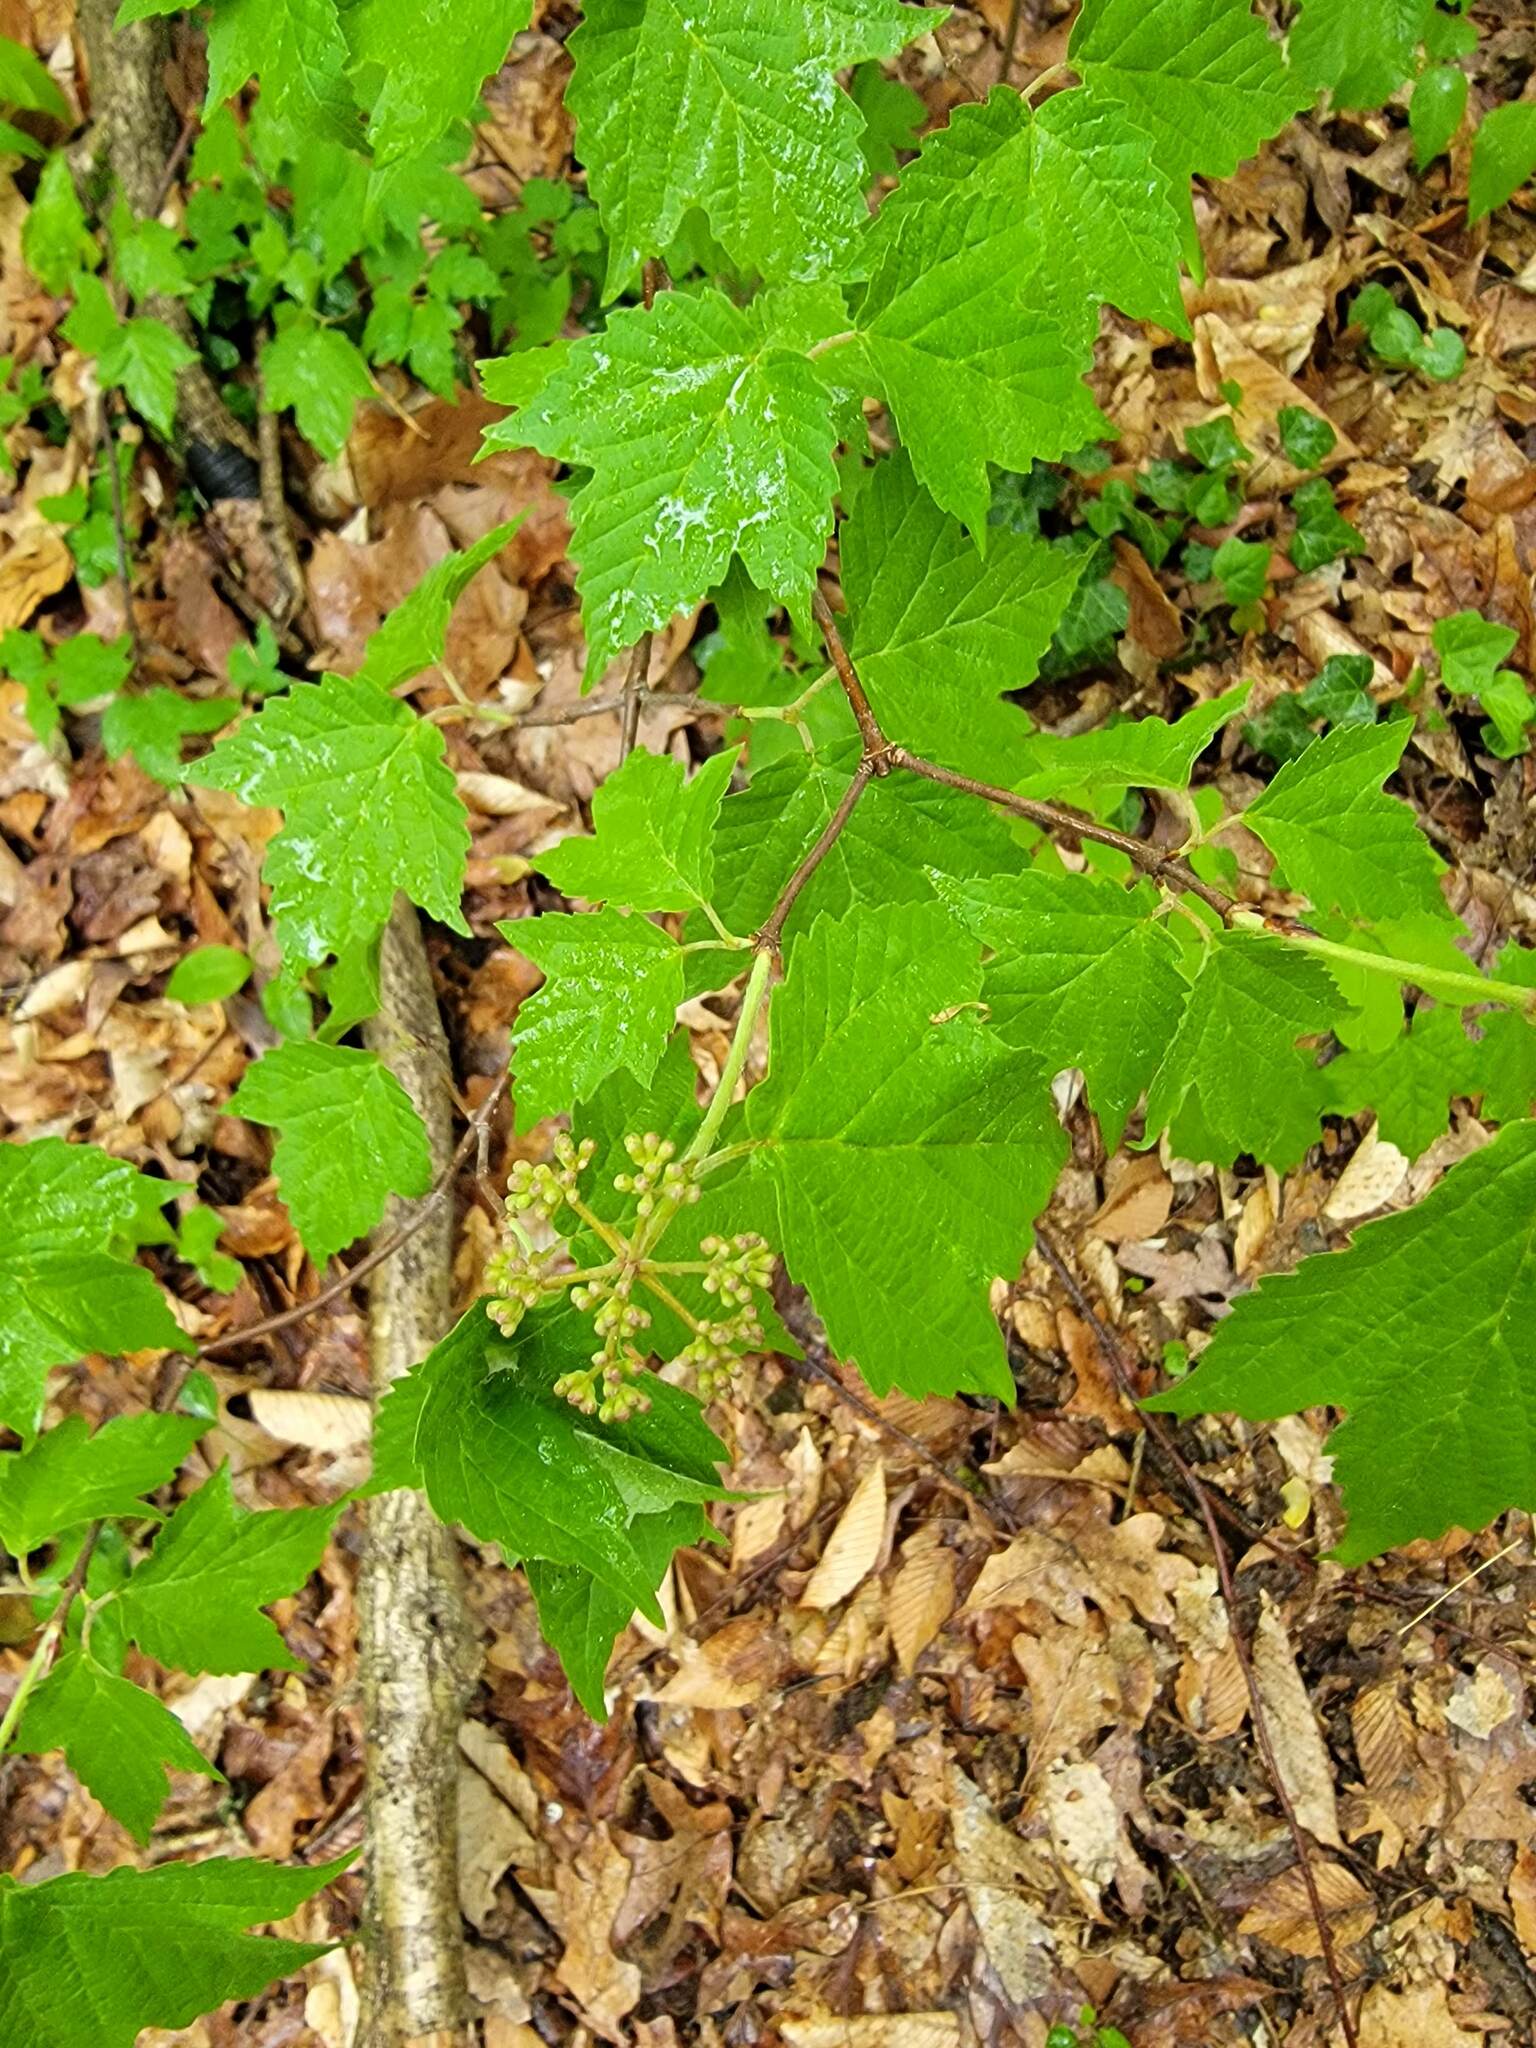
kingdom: Plantae
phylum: Tracheophyta
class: Magnoliopsida
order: Dipsacales
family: Viburnaceae
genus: Viburnum
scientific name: Viburnum acerifolium
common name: Dockmackie
